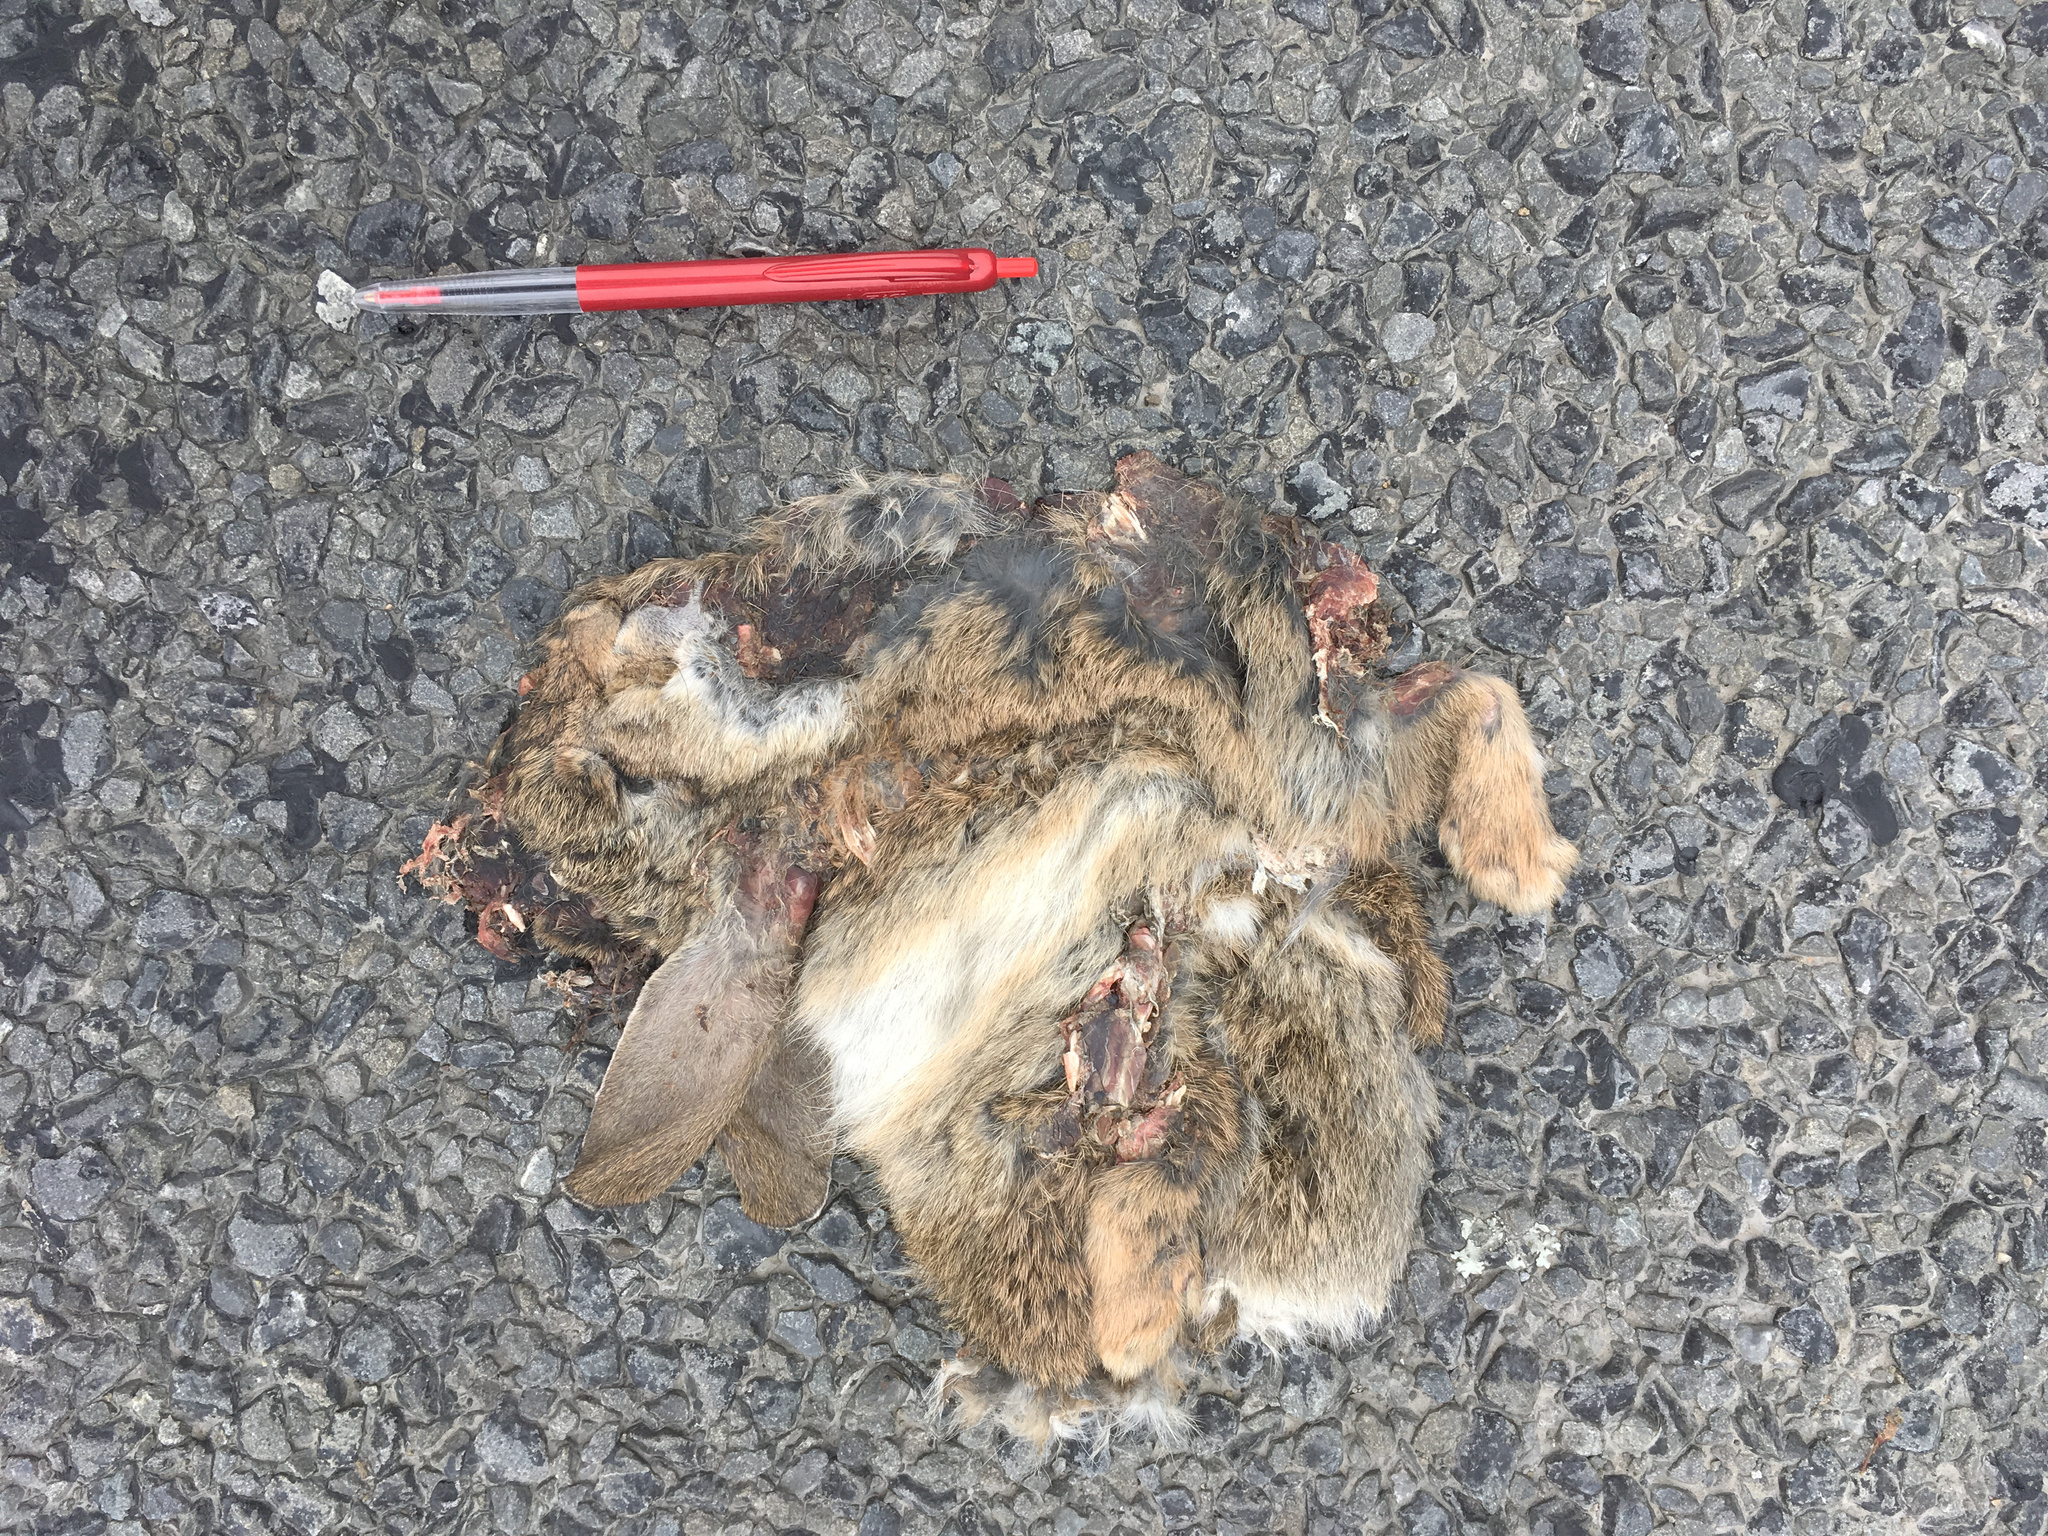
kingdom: Animalia
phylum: Chordata
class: Mammalia
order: Lagomorpha
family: Leporidae
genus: Oryctolagus
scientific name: Oryctolagus cuniculus
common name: European rabbit
